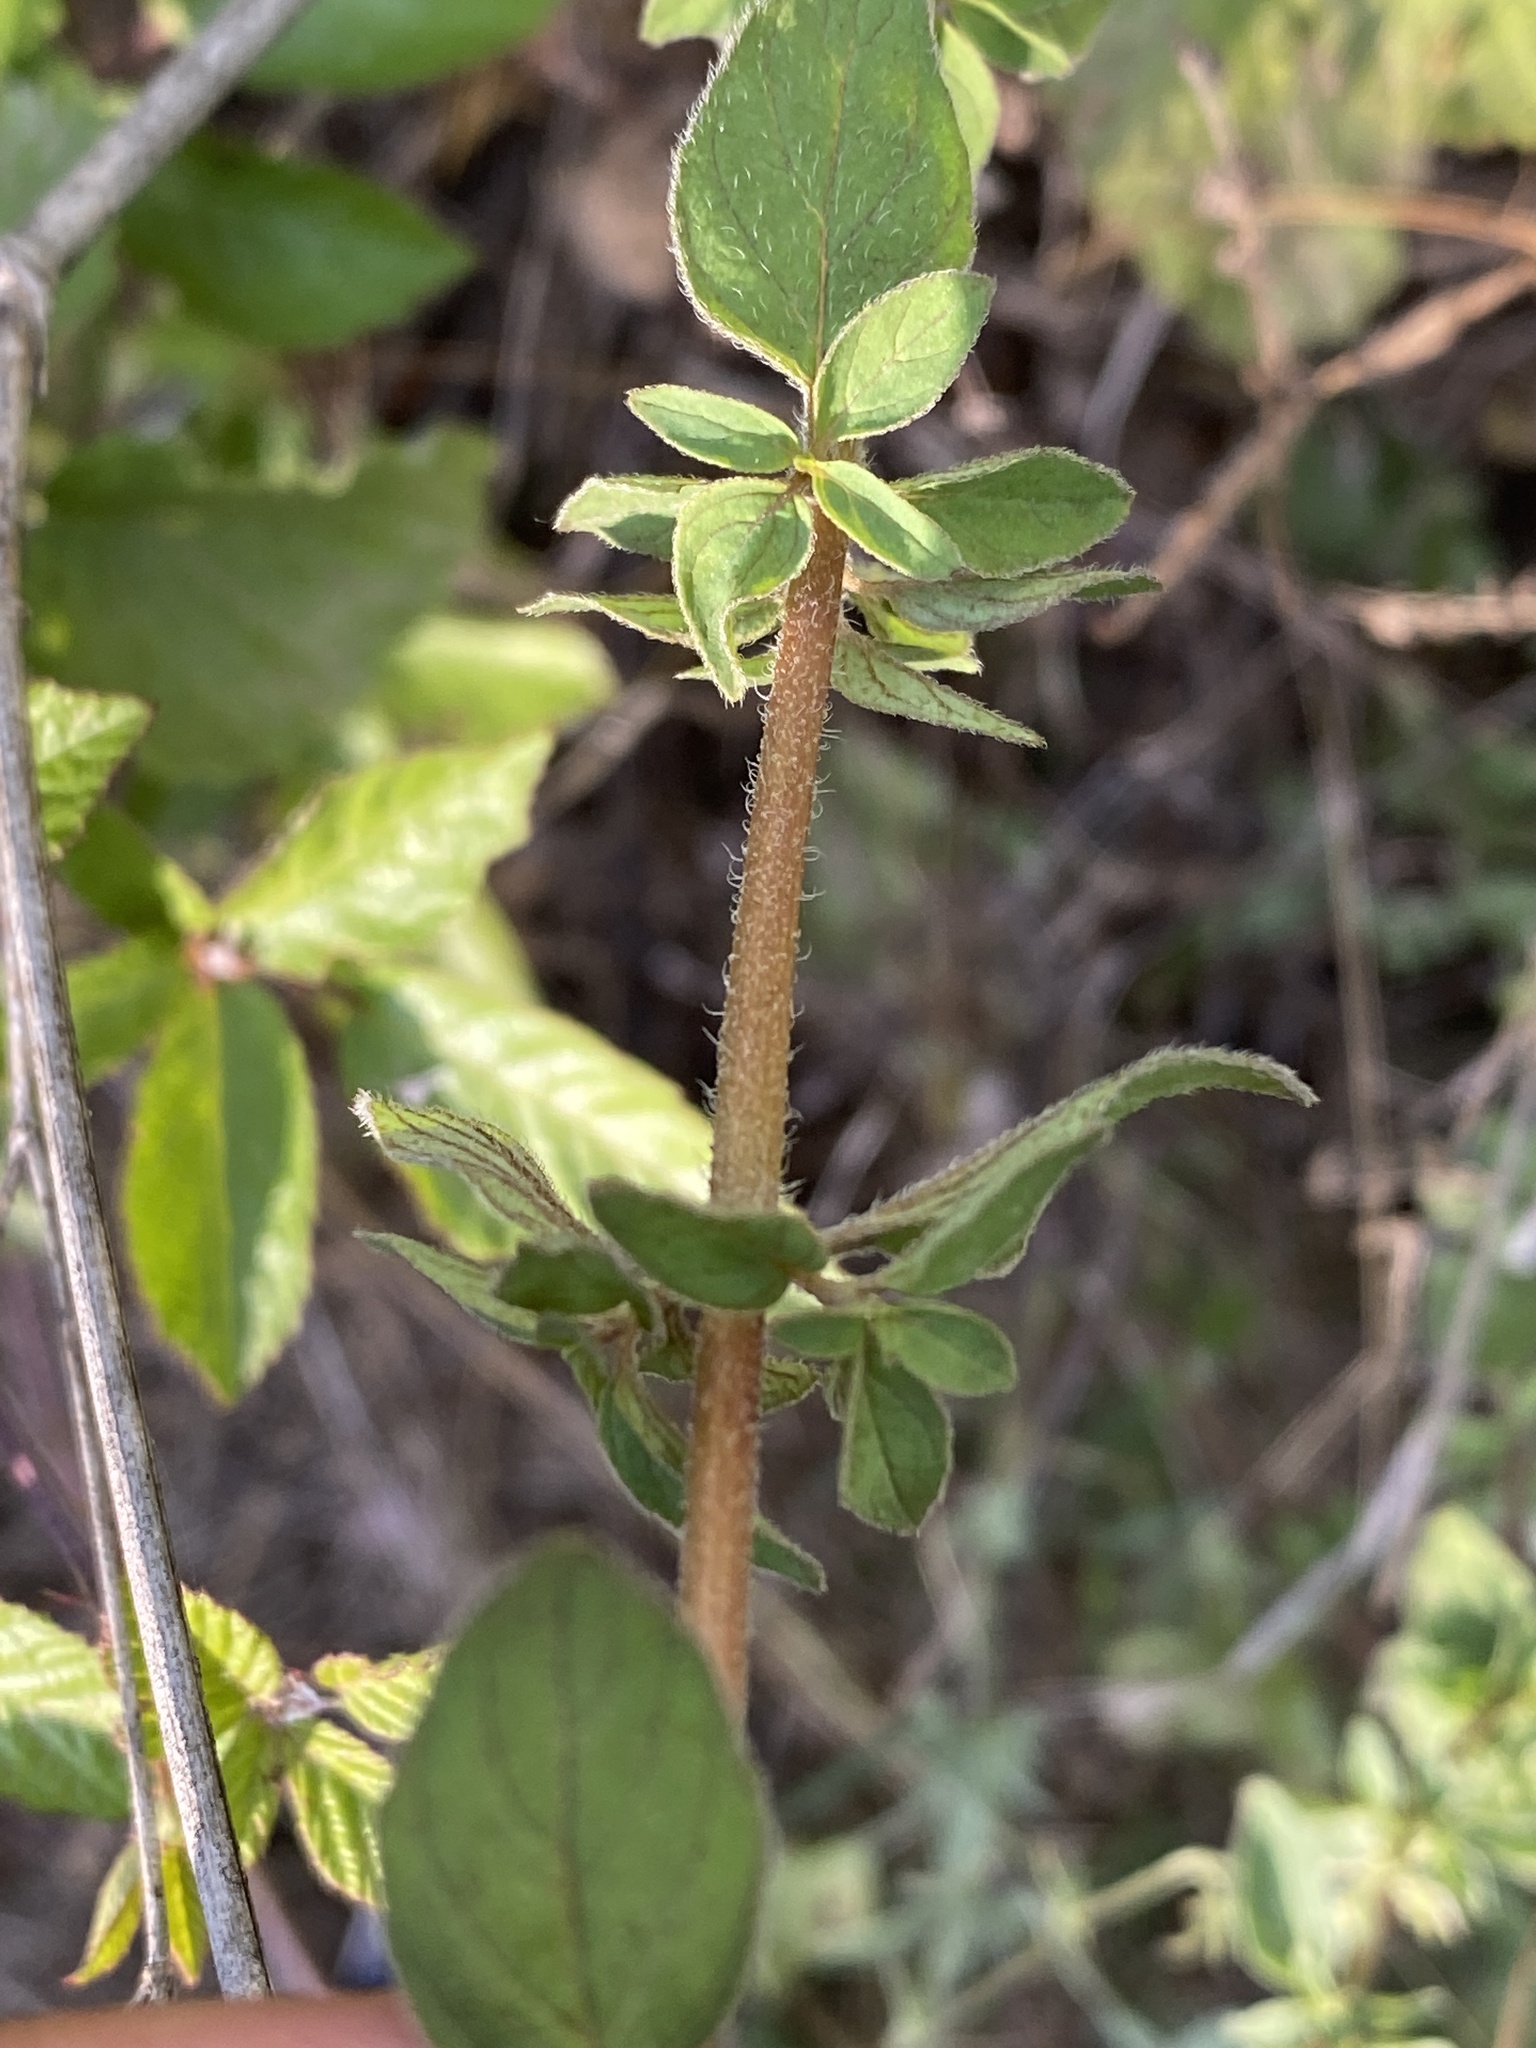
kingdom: Plantae
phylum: Tracheophyta
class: Magnoliopsida
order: Lamiales
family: Lamiaceae
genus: Origanum
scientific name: Origanum vulgare
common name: Wild marjoram
